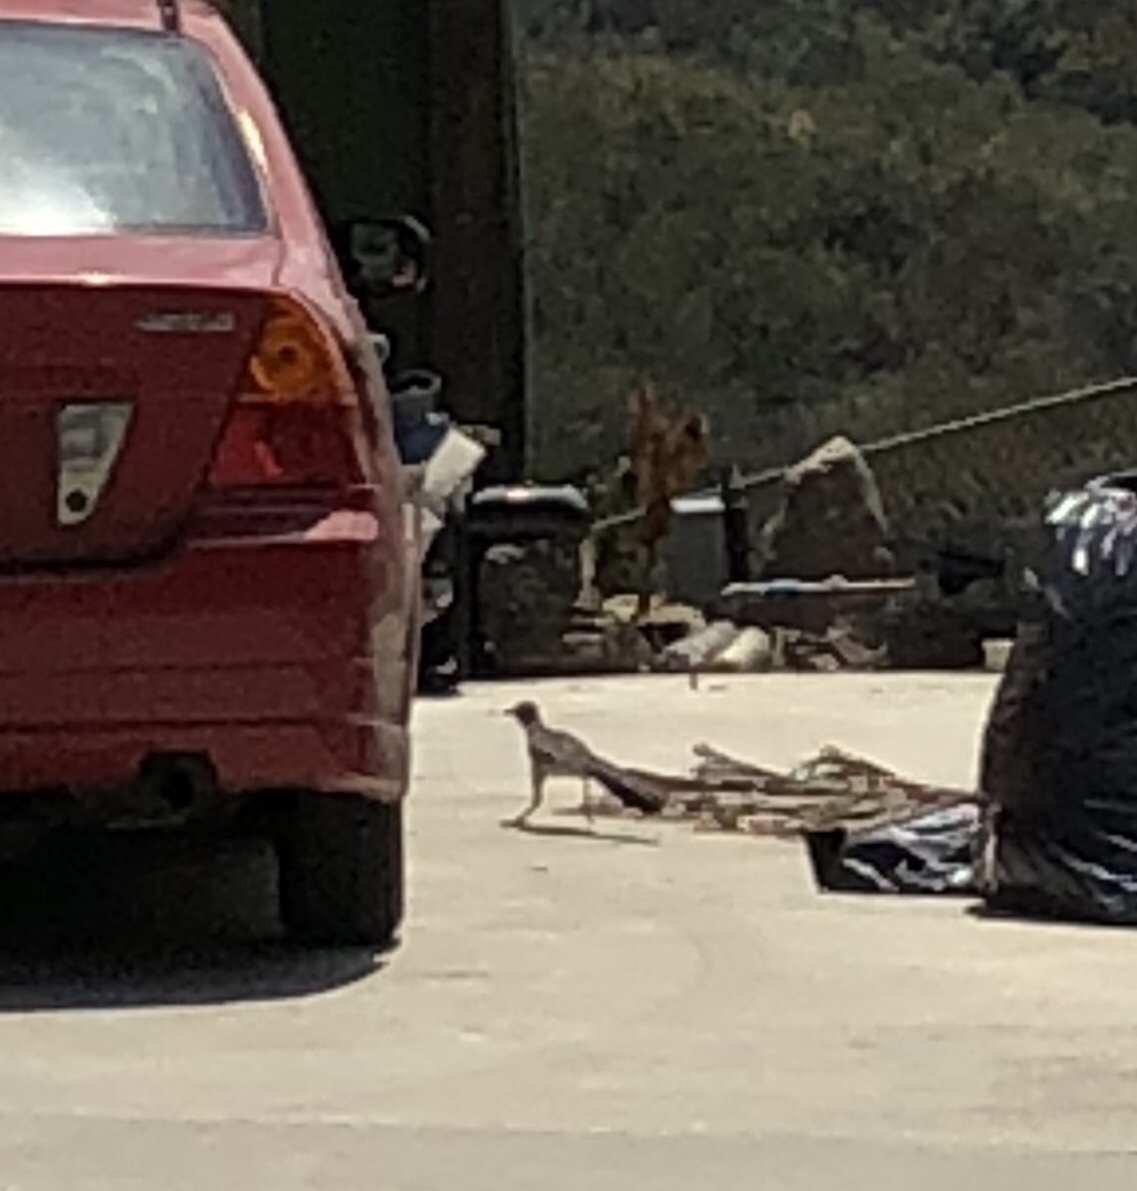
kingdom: Animalia
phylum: Chordata
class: Aves
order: Cuculiformes
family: Cuculidae
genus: Geococcyx
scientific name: Geococcyx californianus
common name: Greater roadrunner
